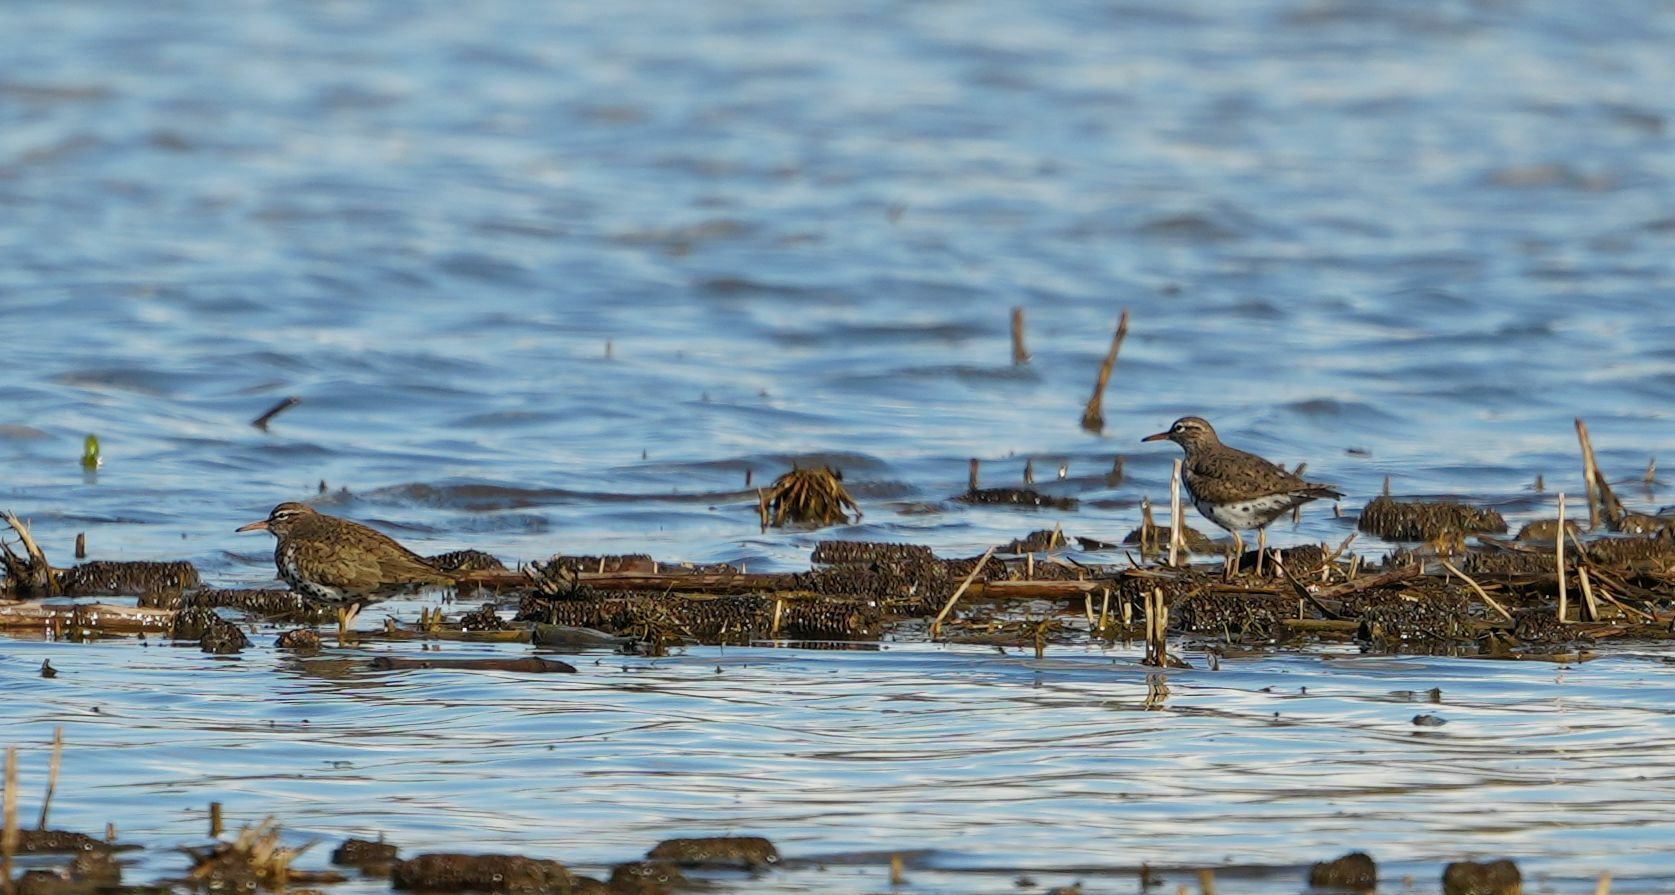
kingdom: Animalia
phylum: Chordata
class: Aves
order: Charadriiformes
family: Scolopacidae
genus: Actitis
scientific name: Actitis macularius
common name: Spotted sandpiper
